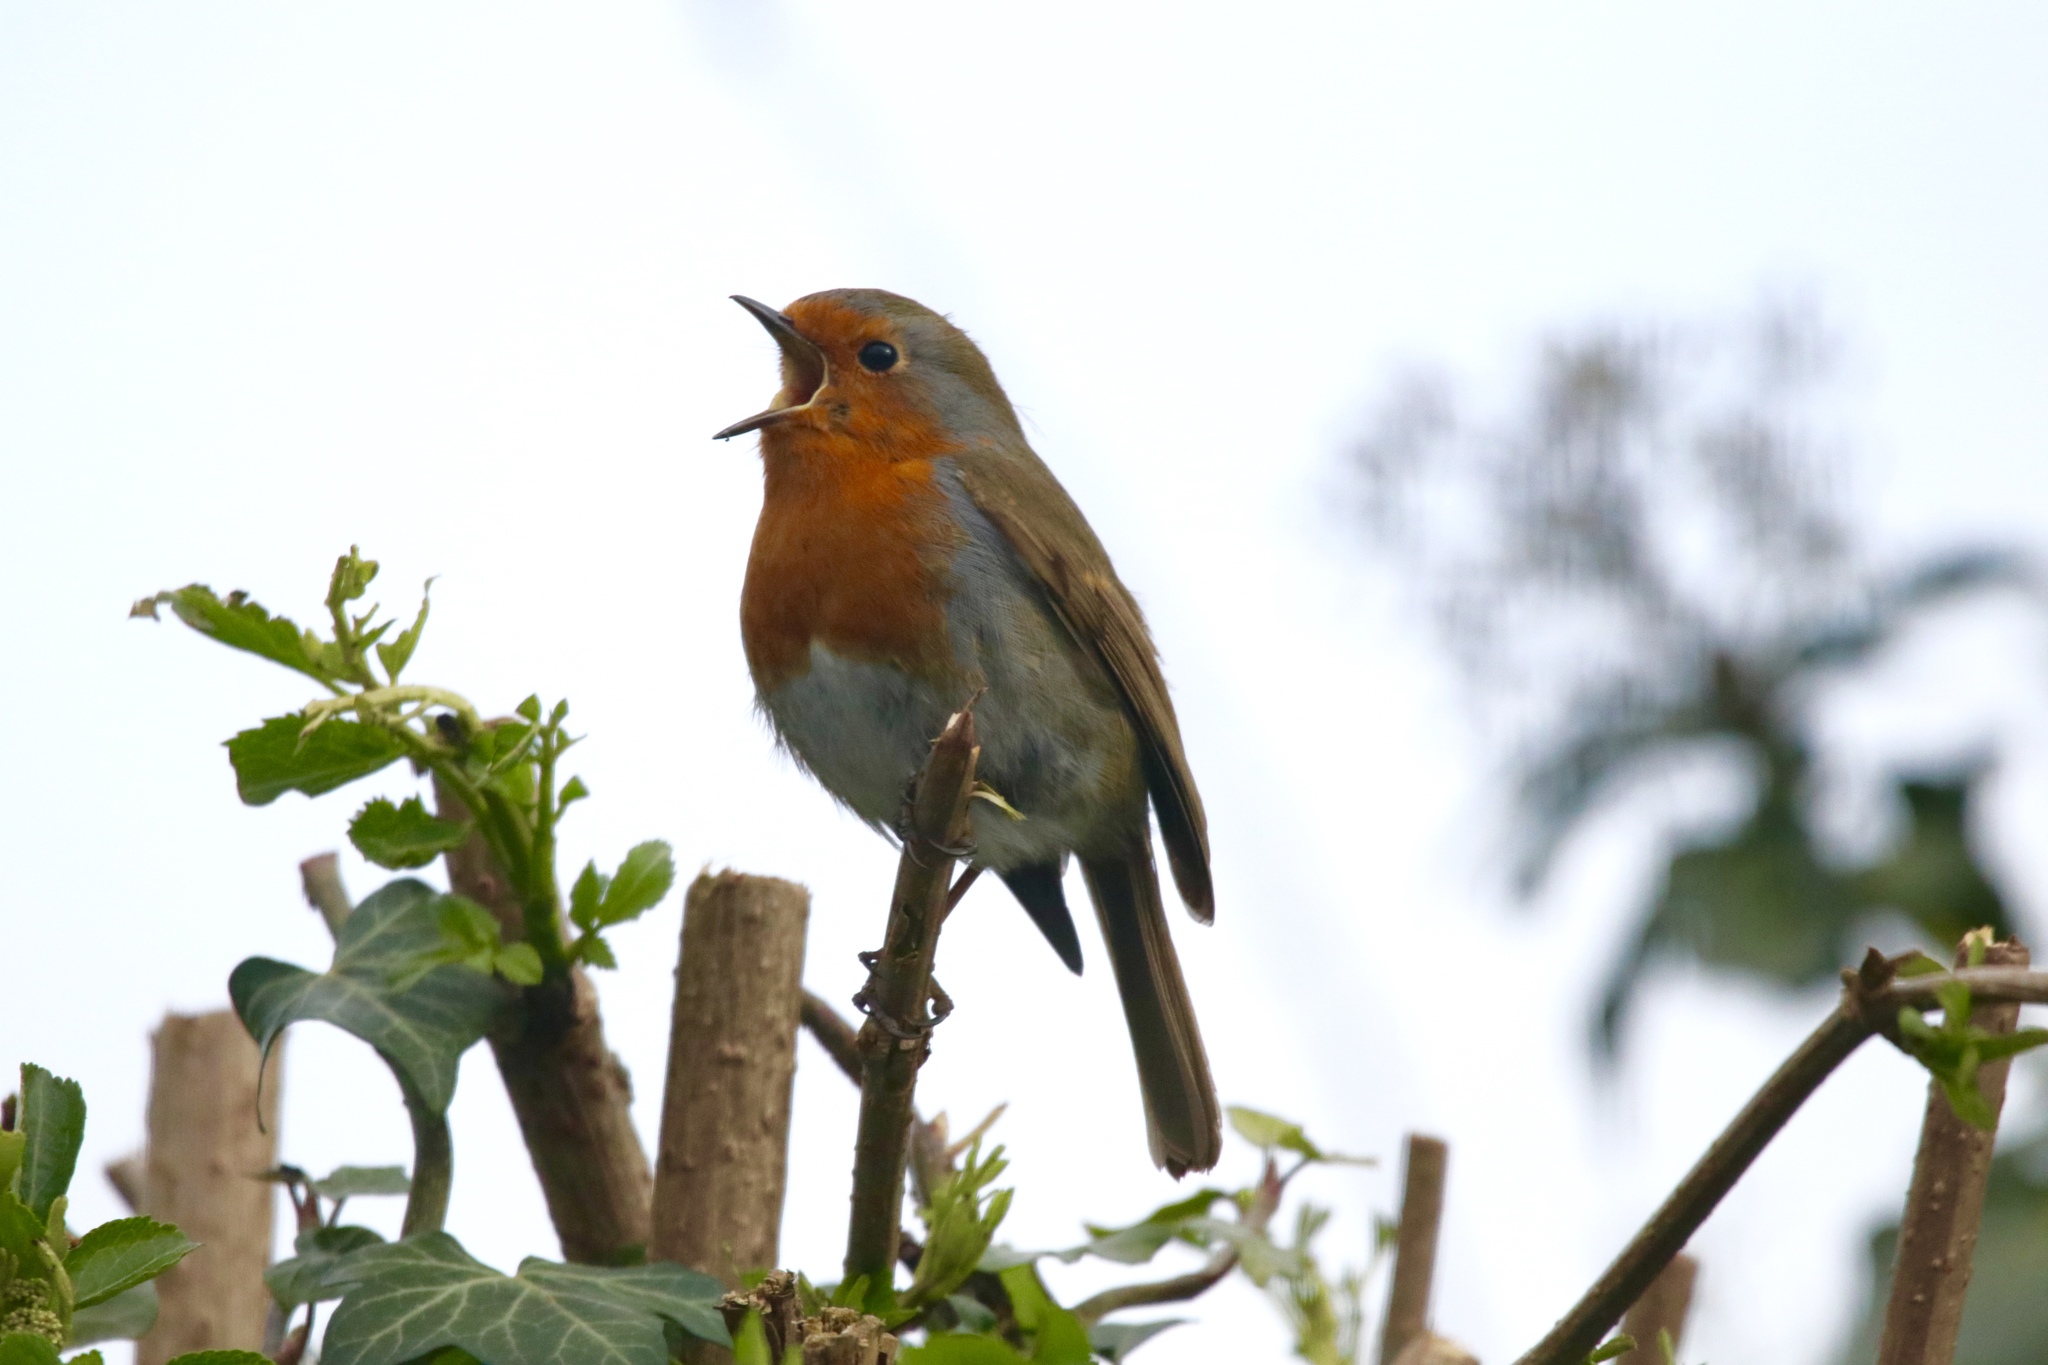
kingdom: Animalia
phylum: Chordata
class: Aves
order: Passeriformes
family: Muscicapidae
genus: Erithacus
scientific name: Erithacus rubecula
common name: European robin
